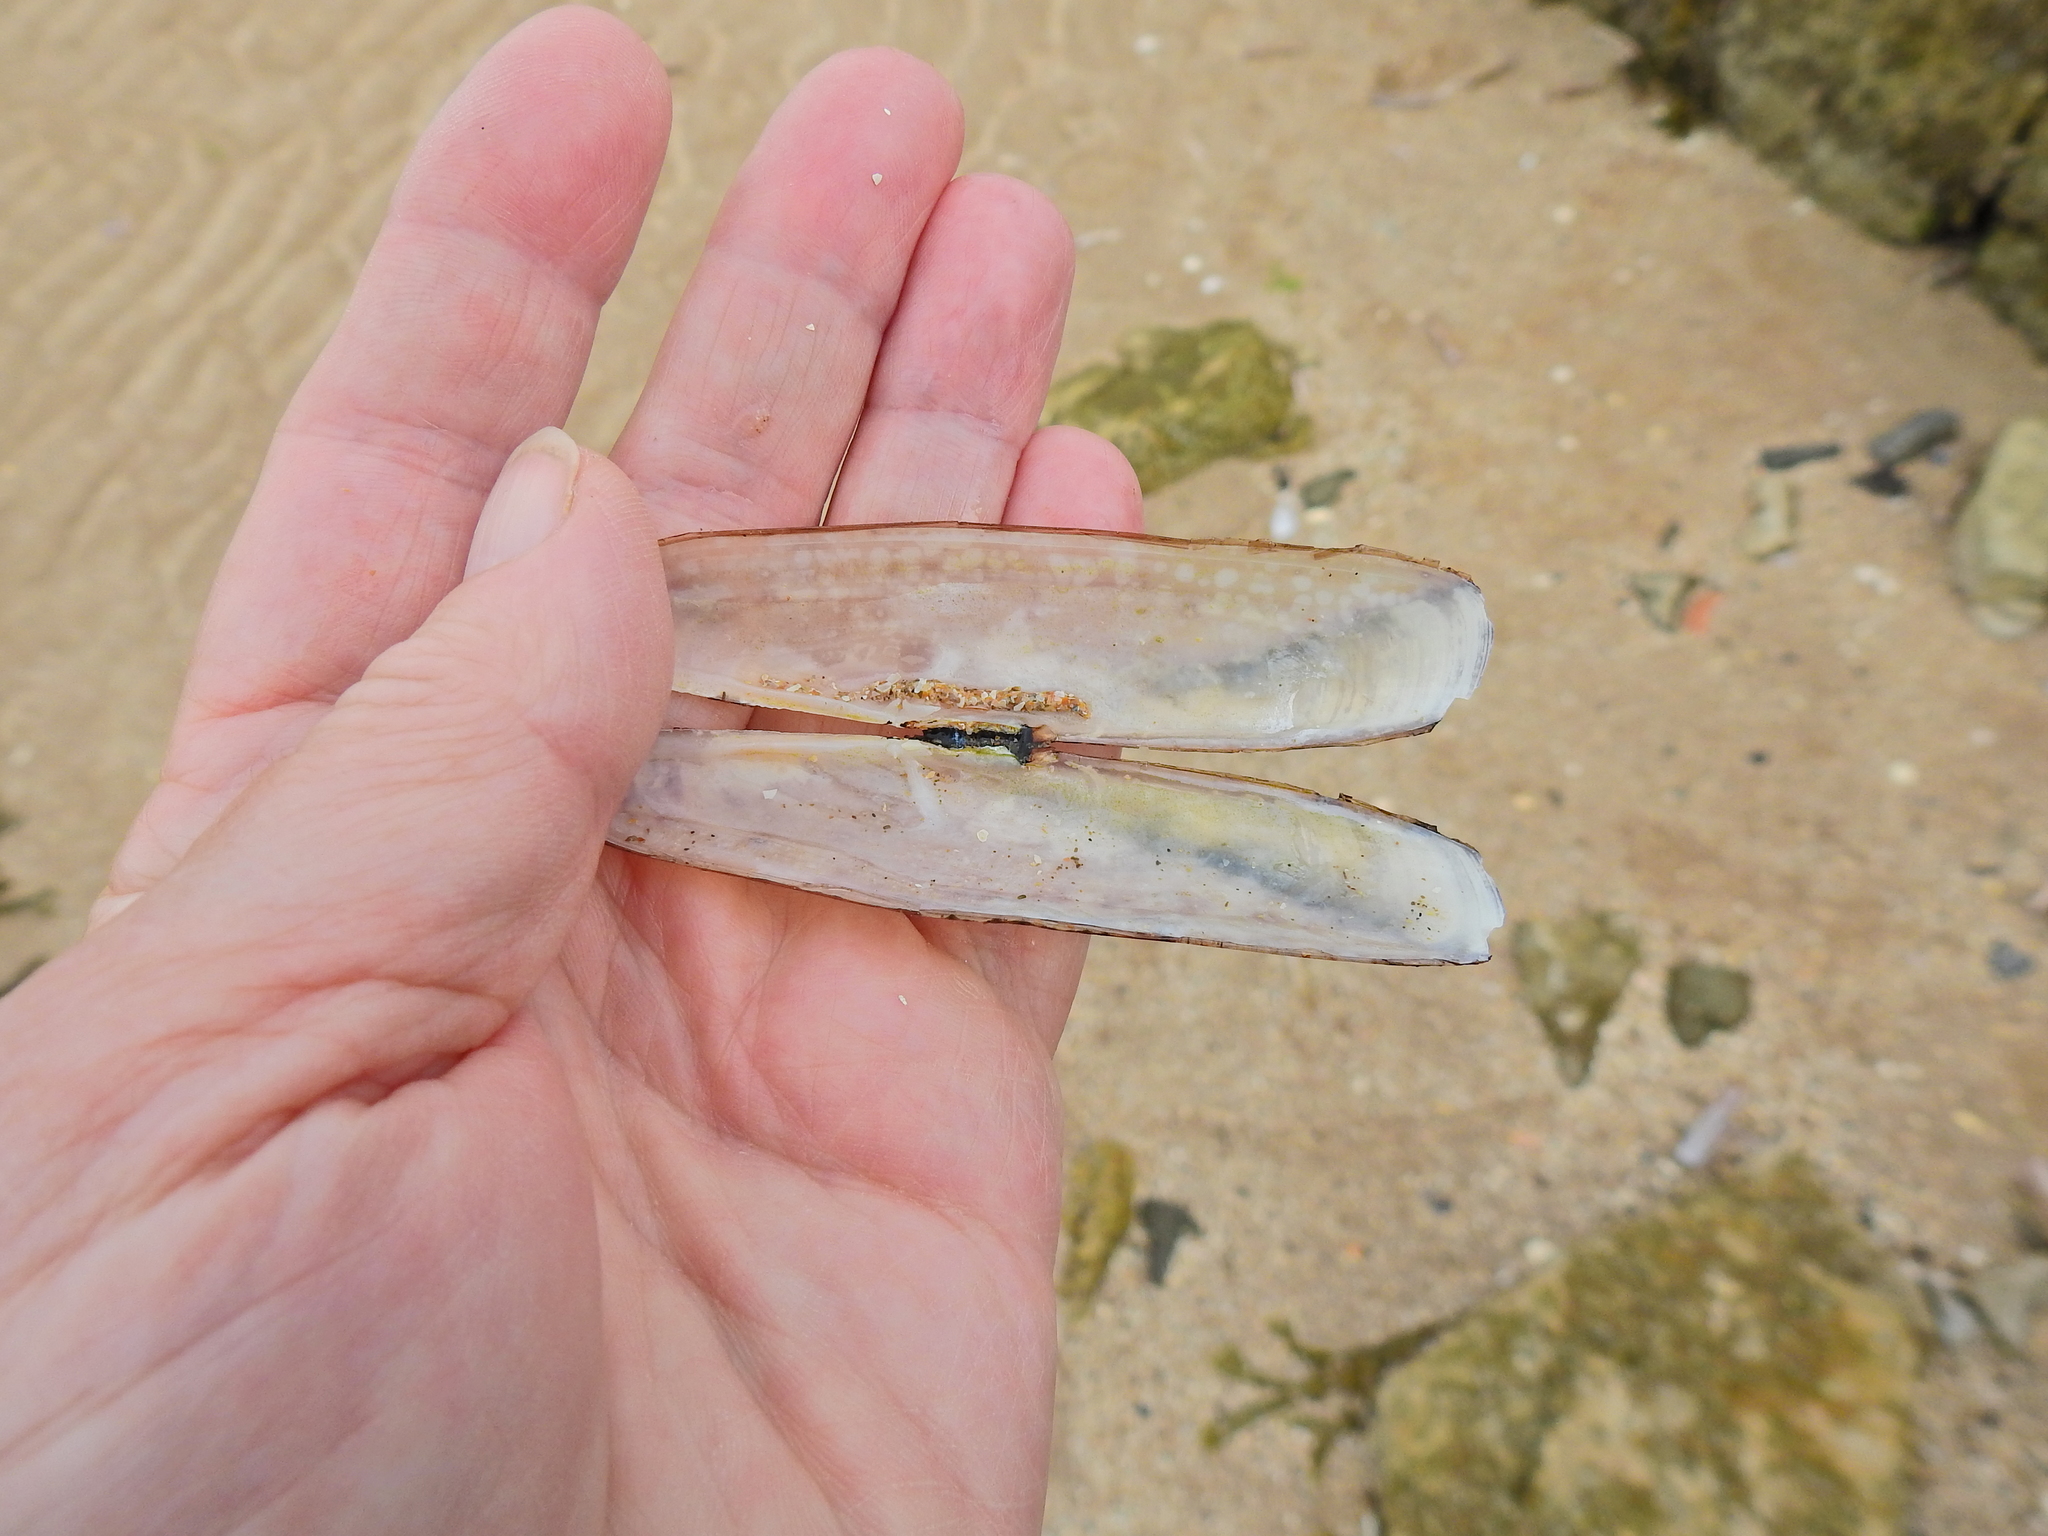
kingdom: Animalia
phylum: Mollusca
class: Bivalvia
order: Adapedonta
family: Pharidae
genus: Pharus
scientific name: Pharus legumen
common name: Bean razor clam
